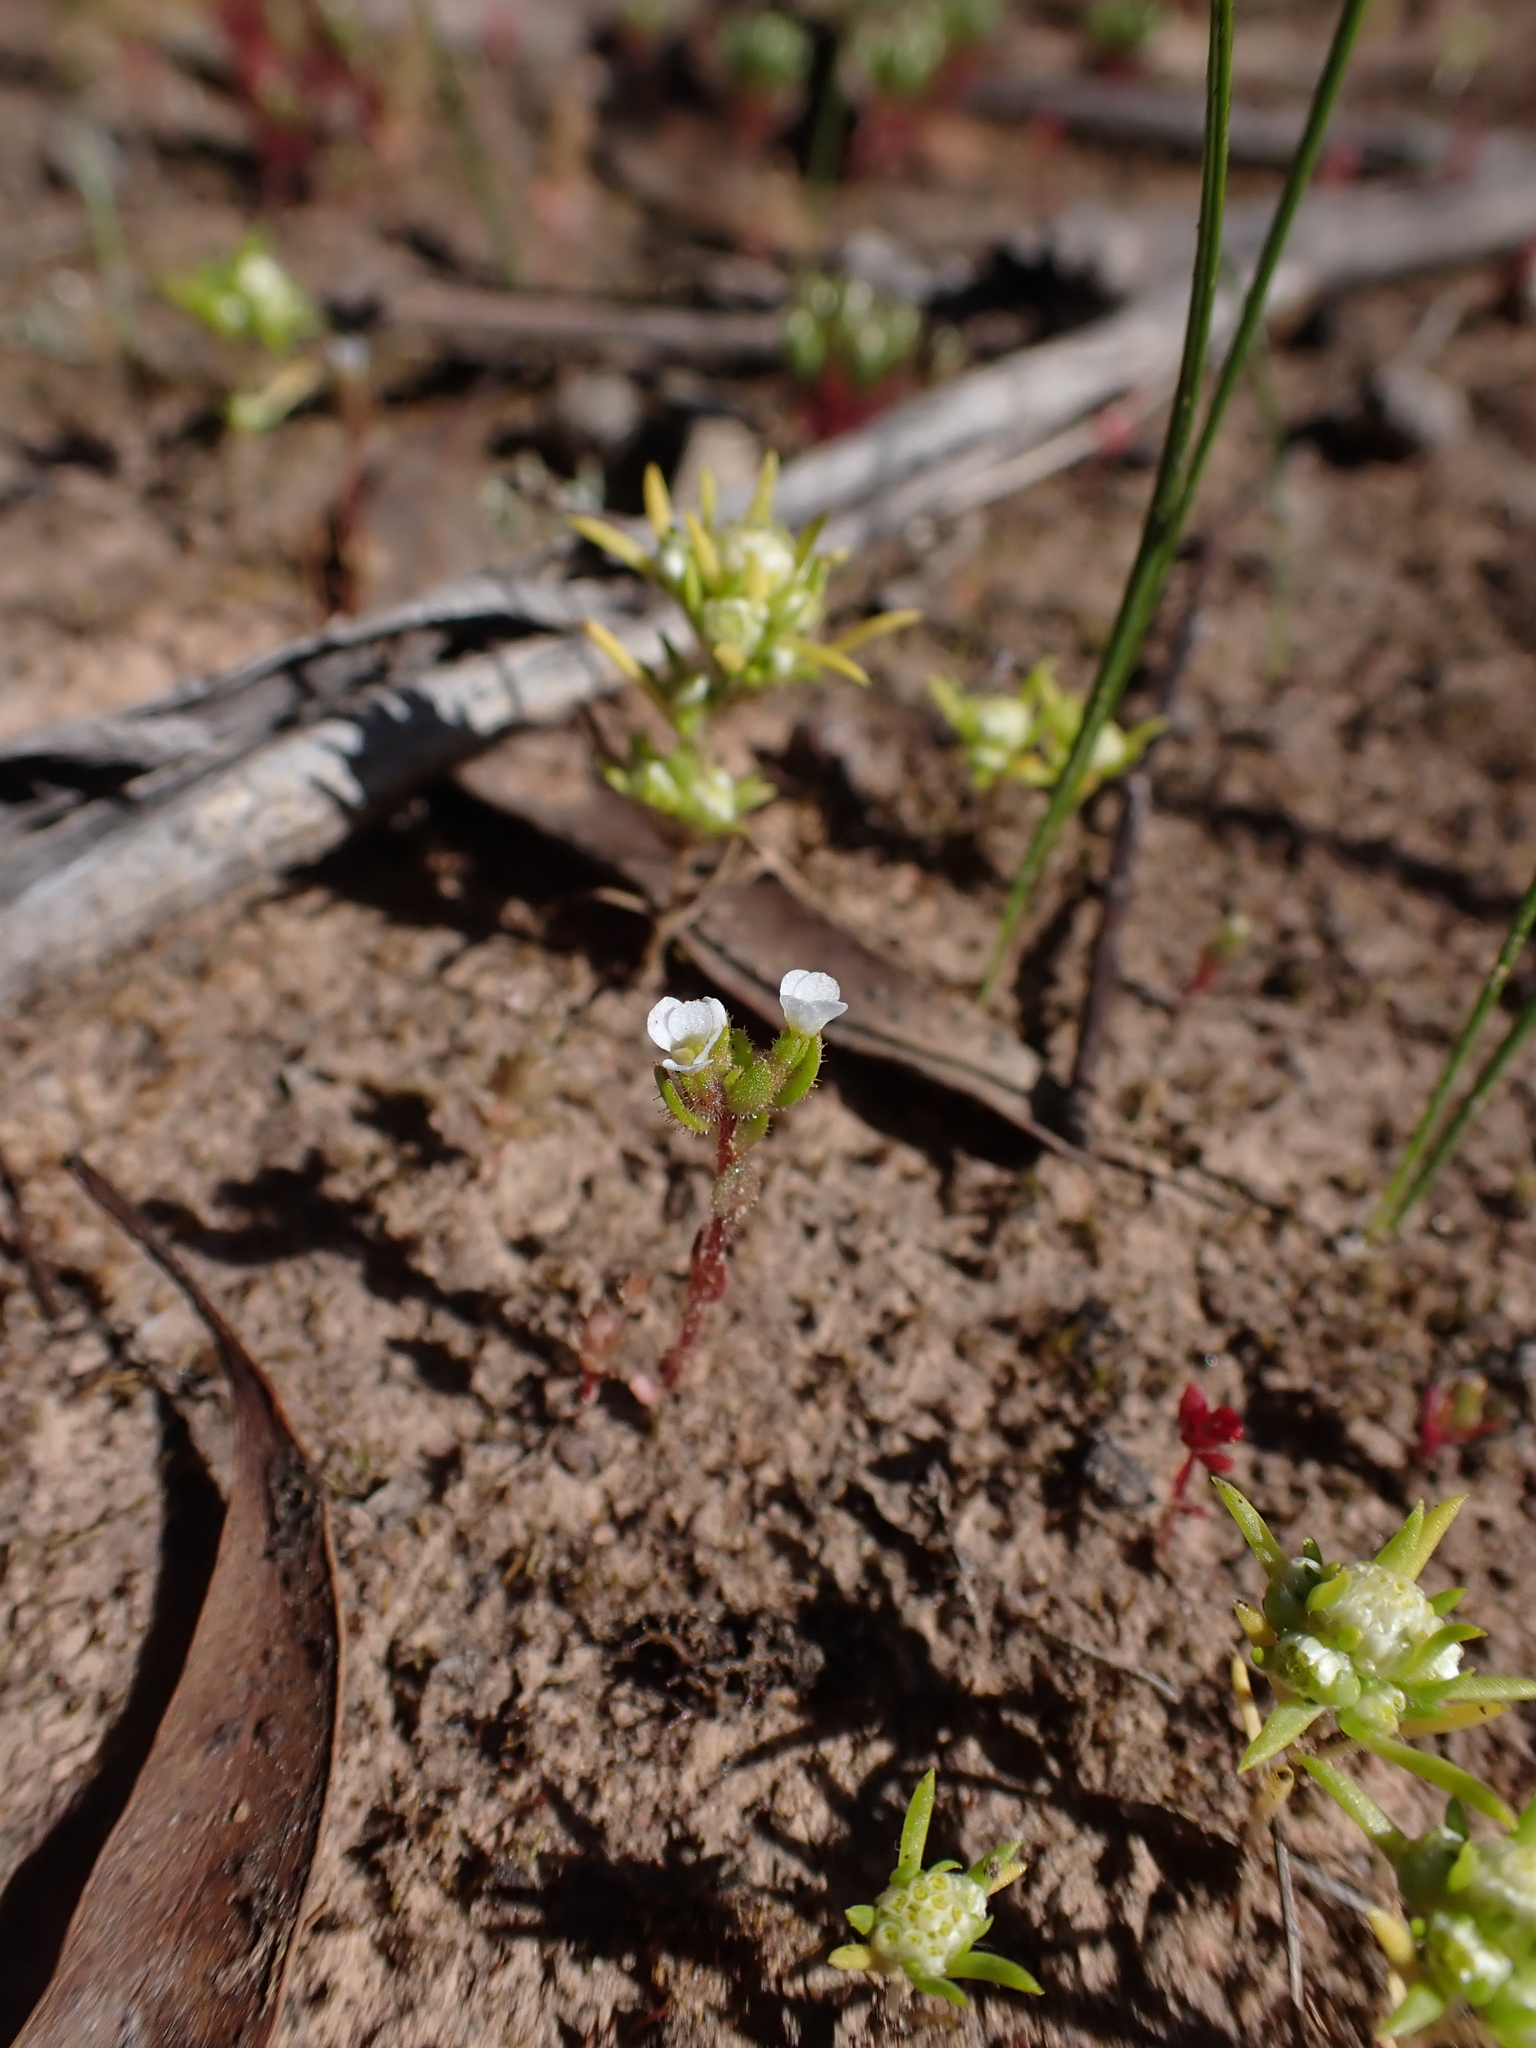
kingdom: Plantae
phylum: Tracheophyta
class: Magnoliopsida
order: Asterales
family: Stylidiaceae
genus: Levenhookia
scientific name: Levenhookia dubia
